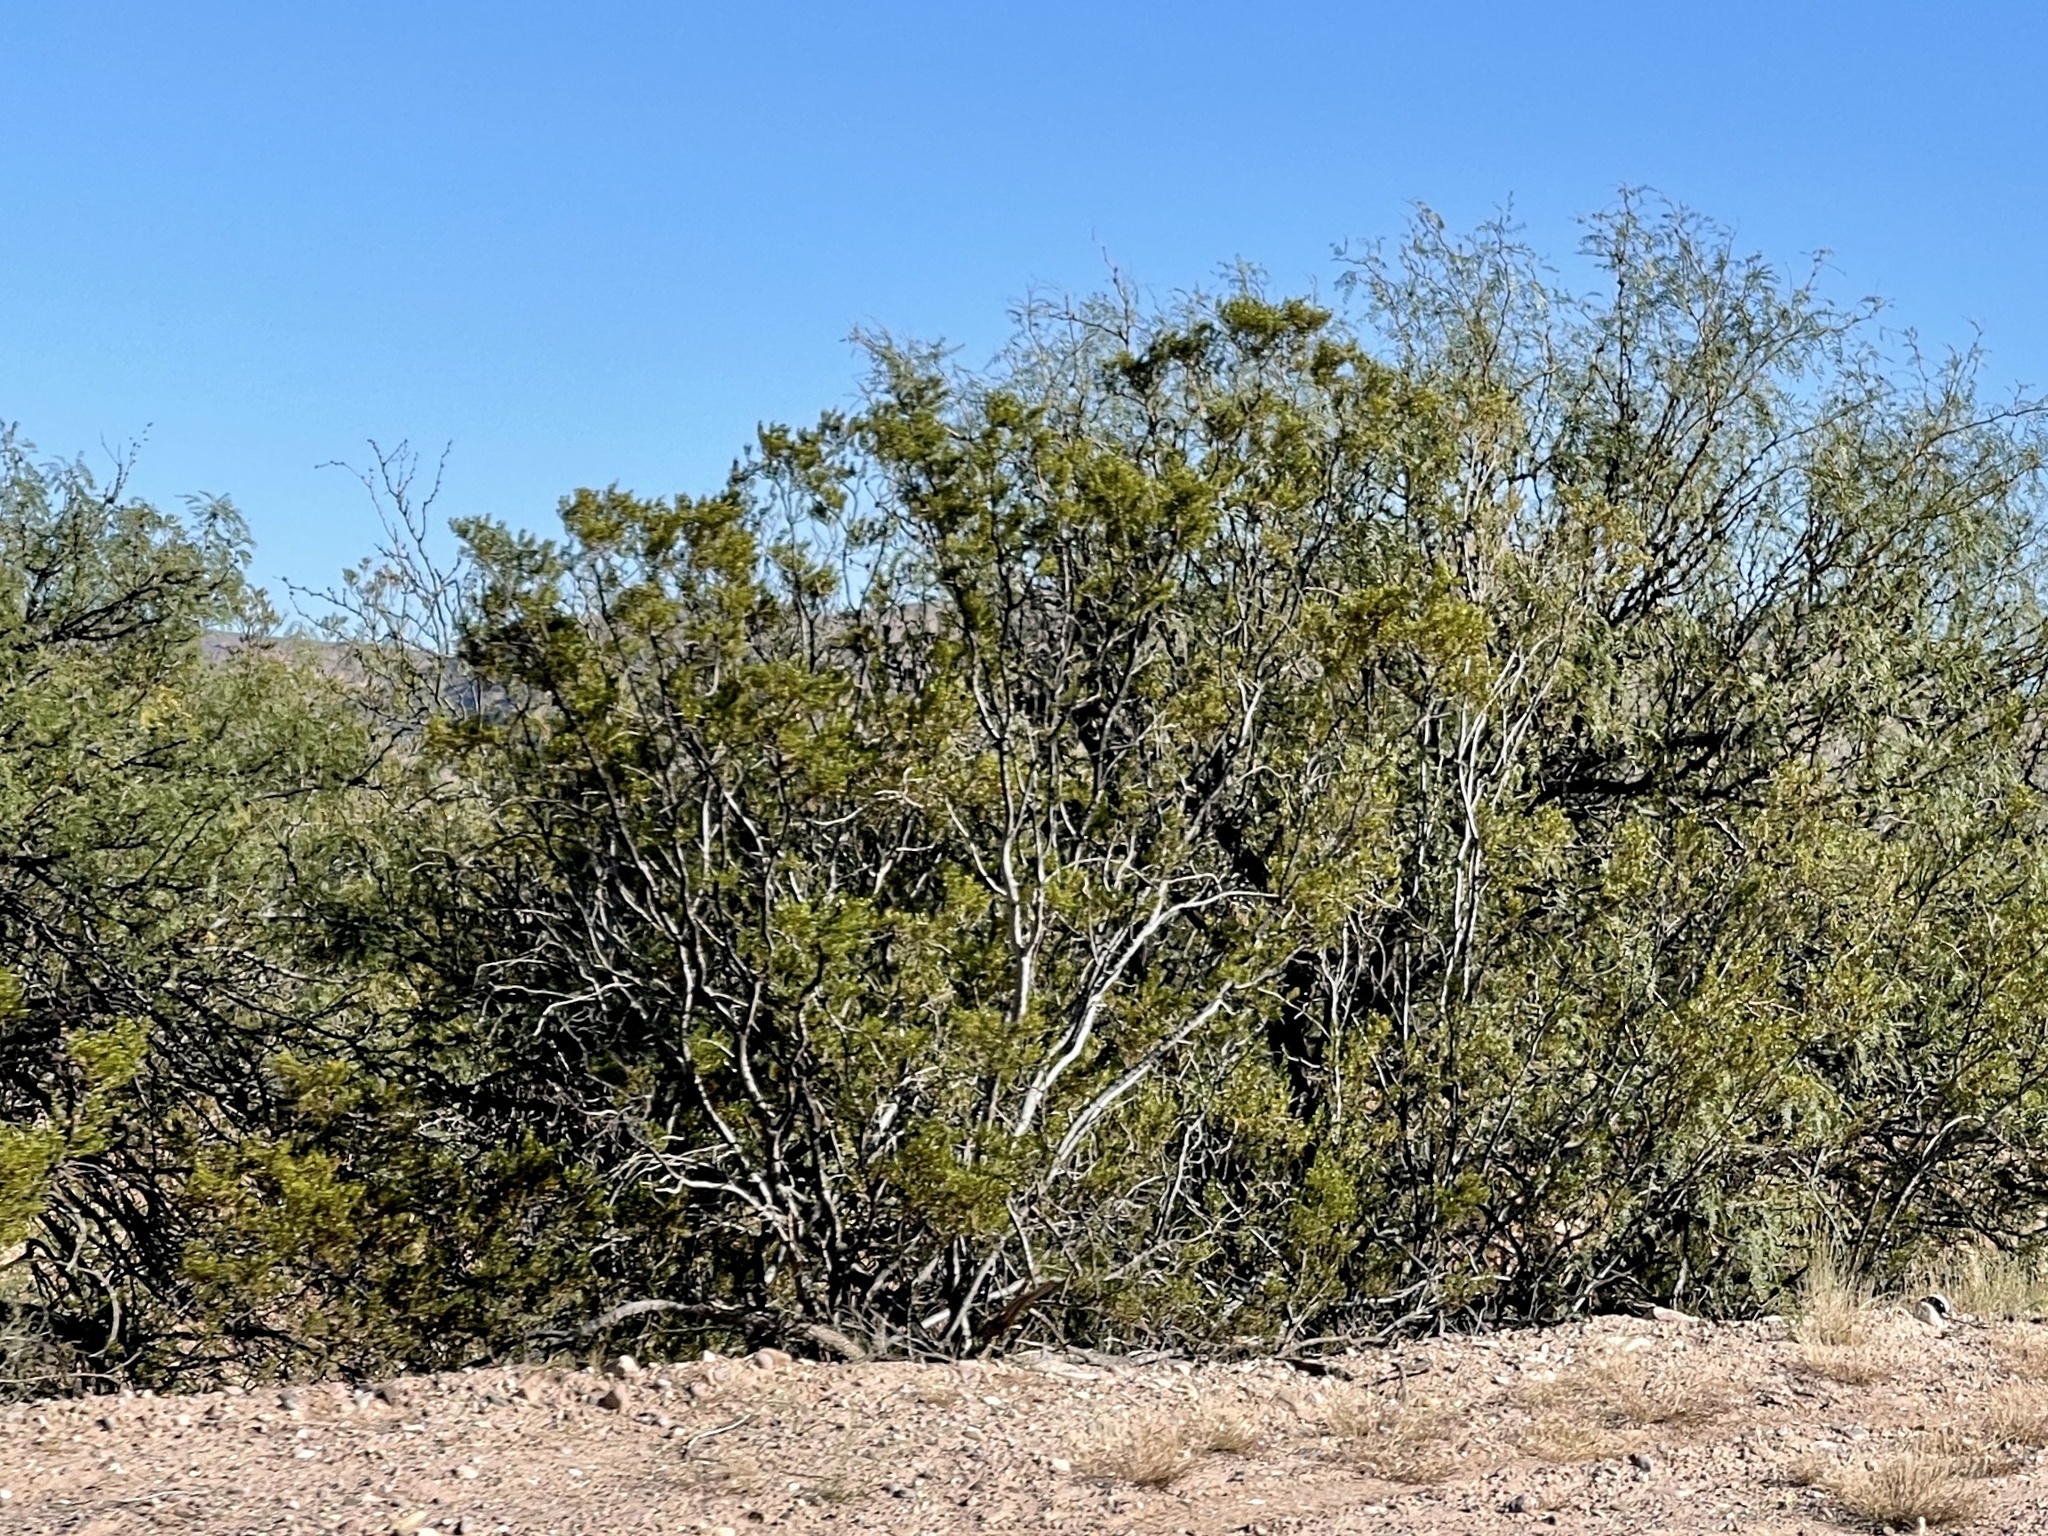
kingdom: Plantae
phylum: Tracheophyta
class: Magnoliopsida
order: Zygophyllales
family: Zygophyllaceae
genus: Larrea
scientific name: Larrea tridentata
